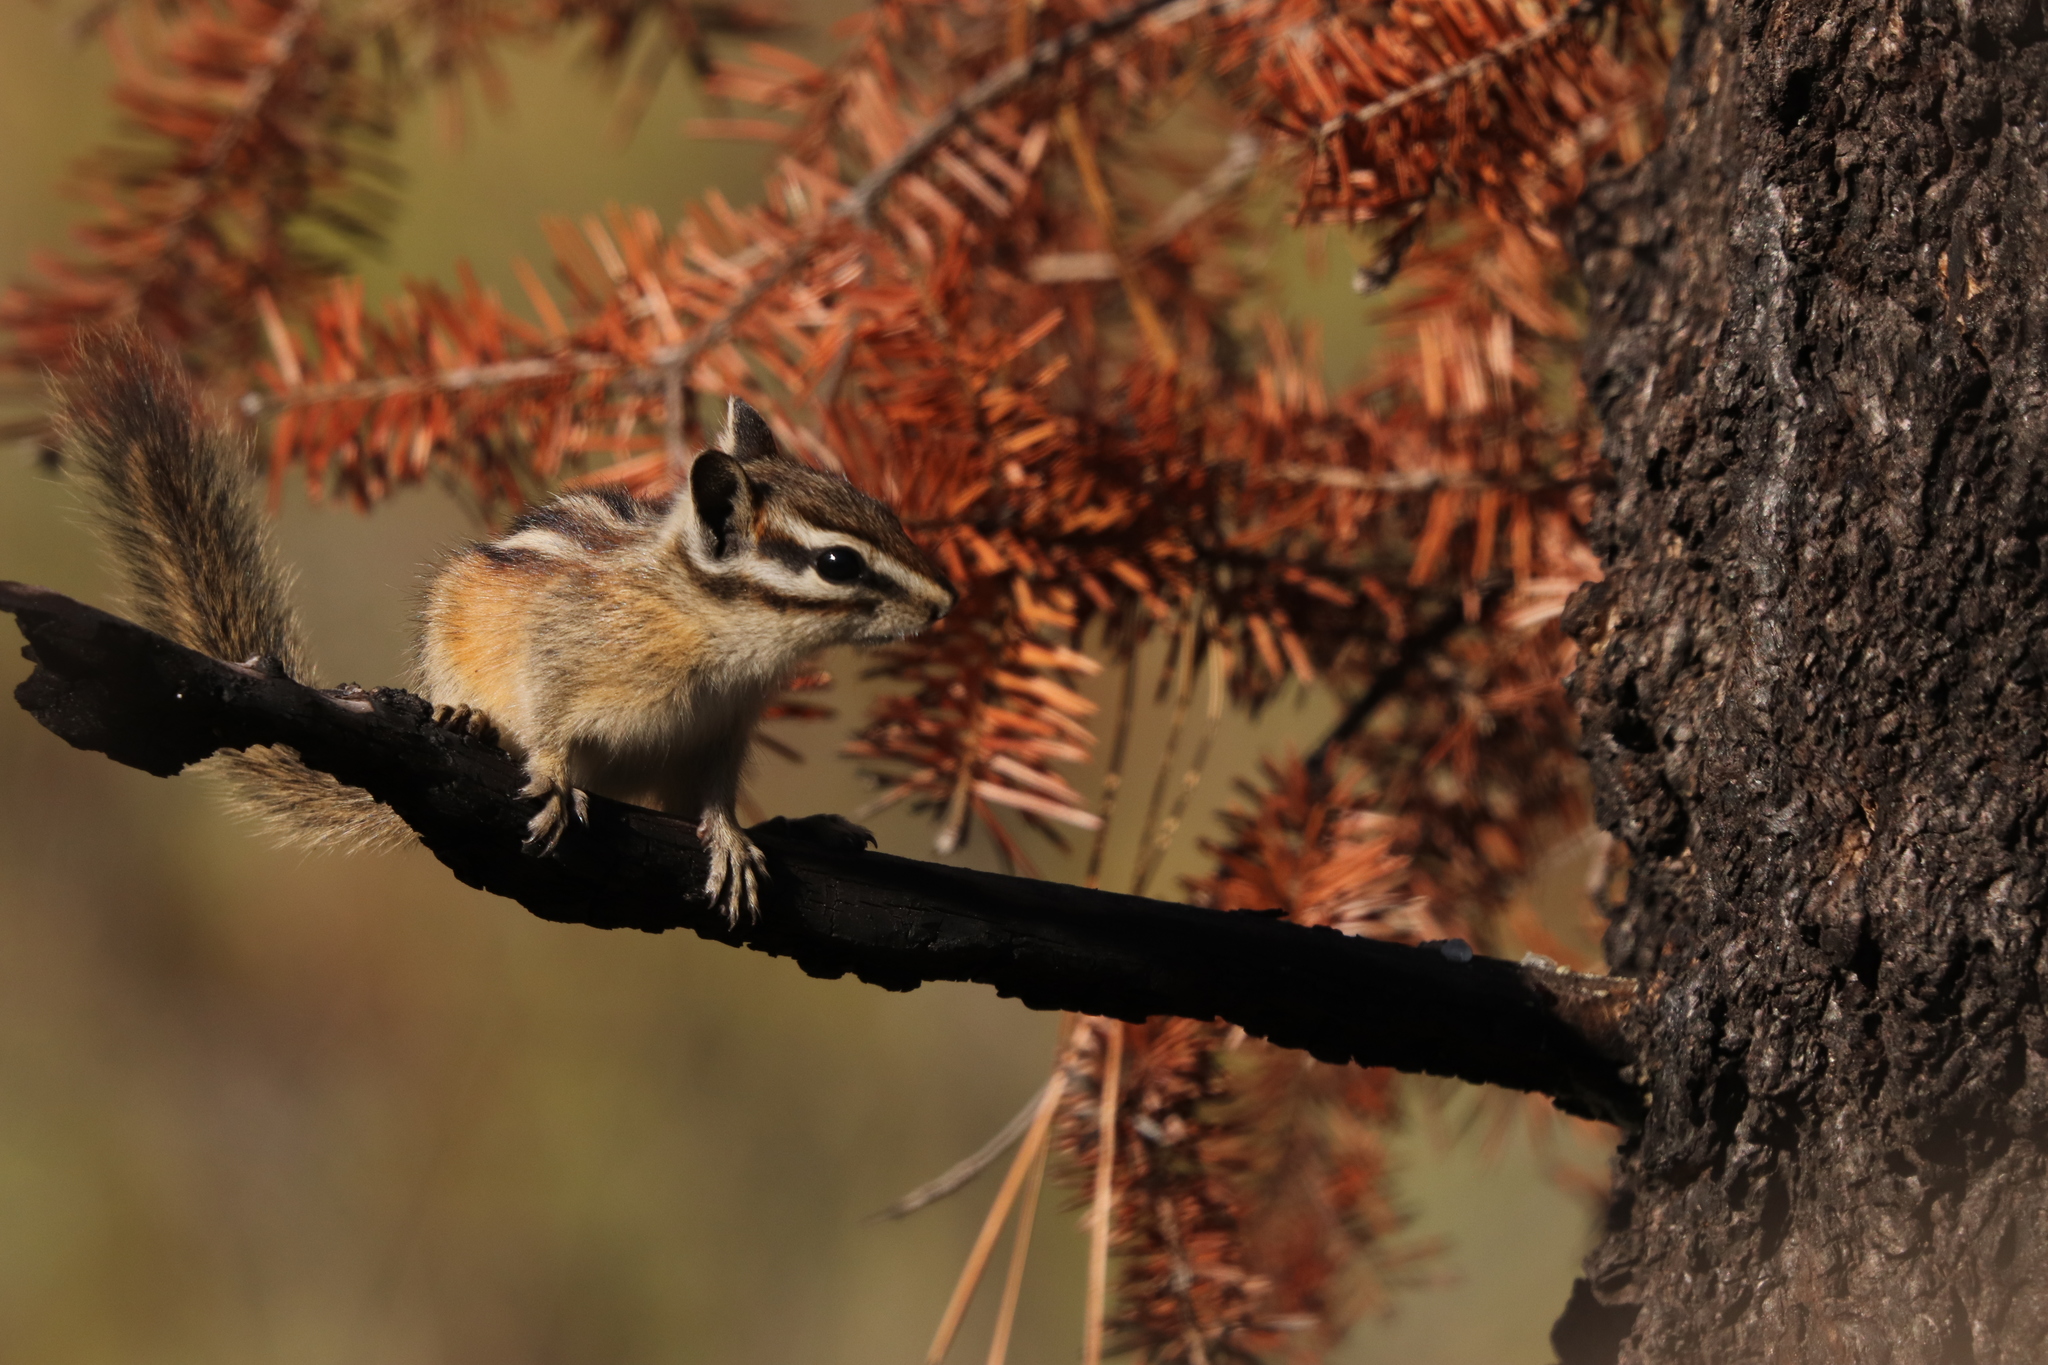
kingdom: Animalia
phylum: Chordata
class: Mammalia
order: Rodentia
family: Sciuridae
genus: Tamias
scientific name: Tamias amoenus
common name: Yellow-pine chipmunk
